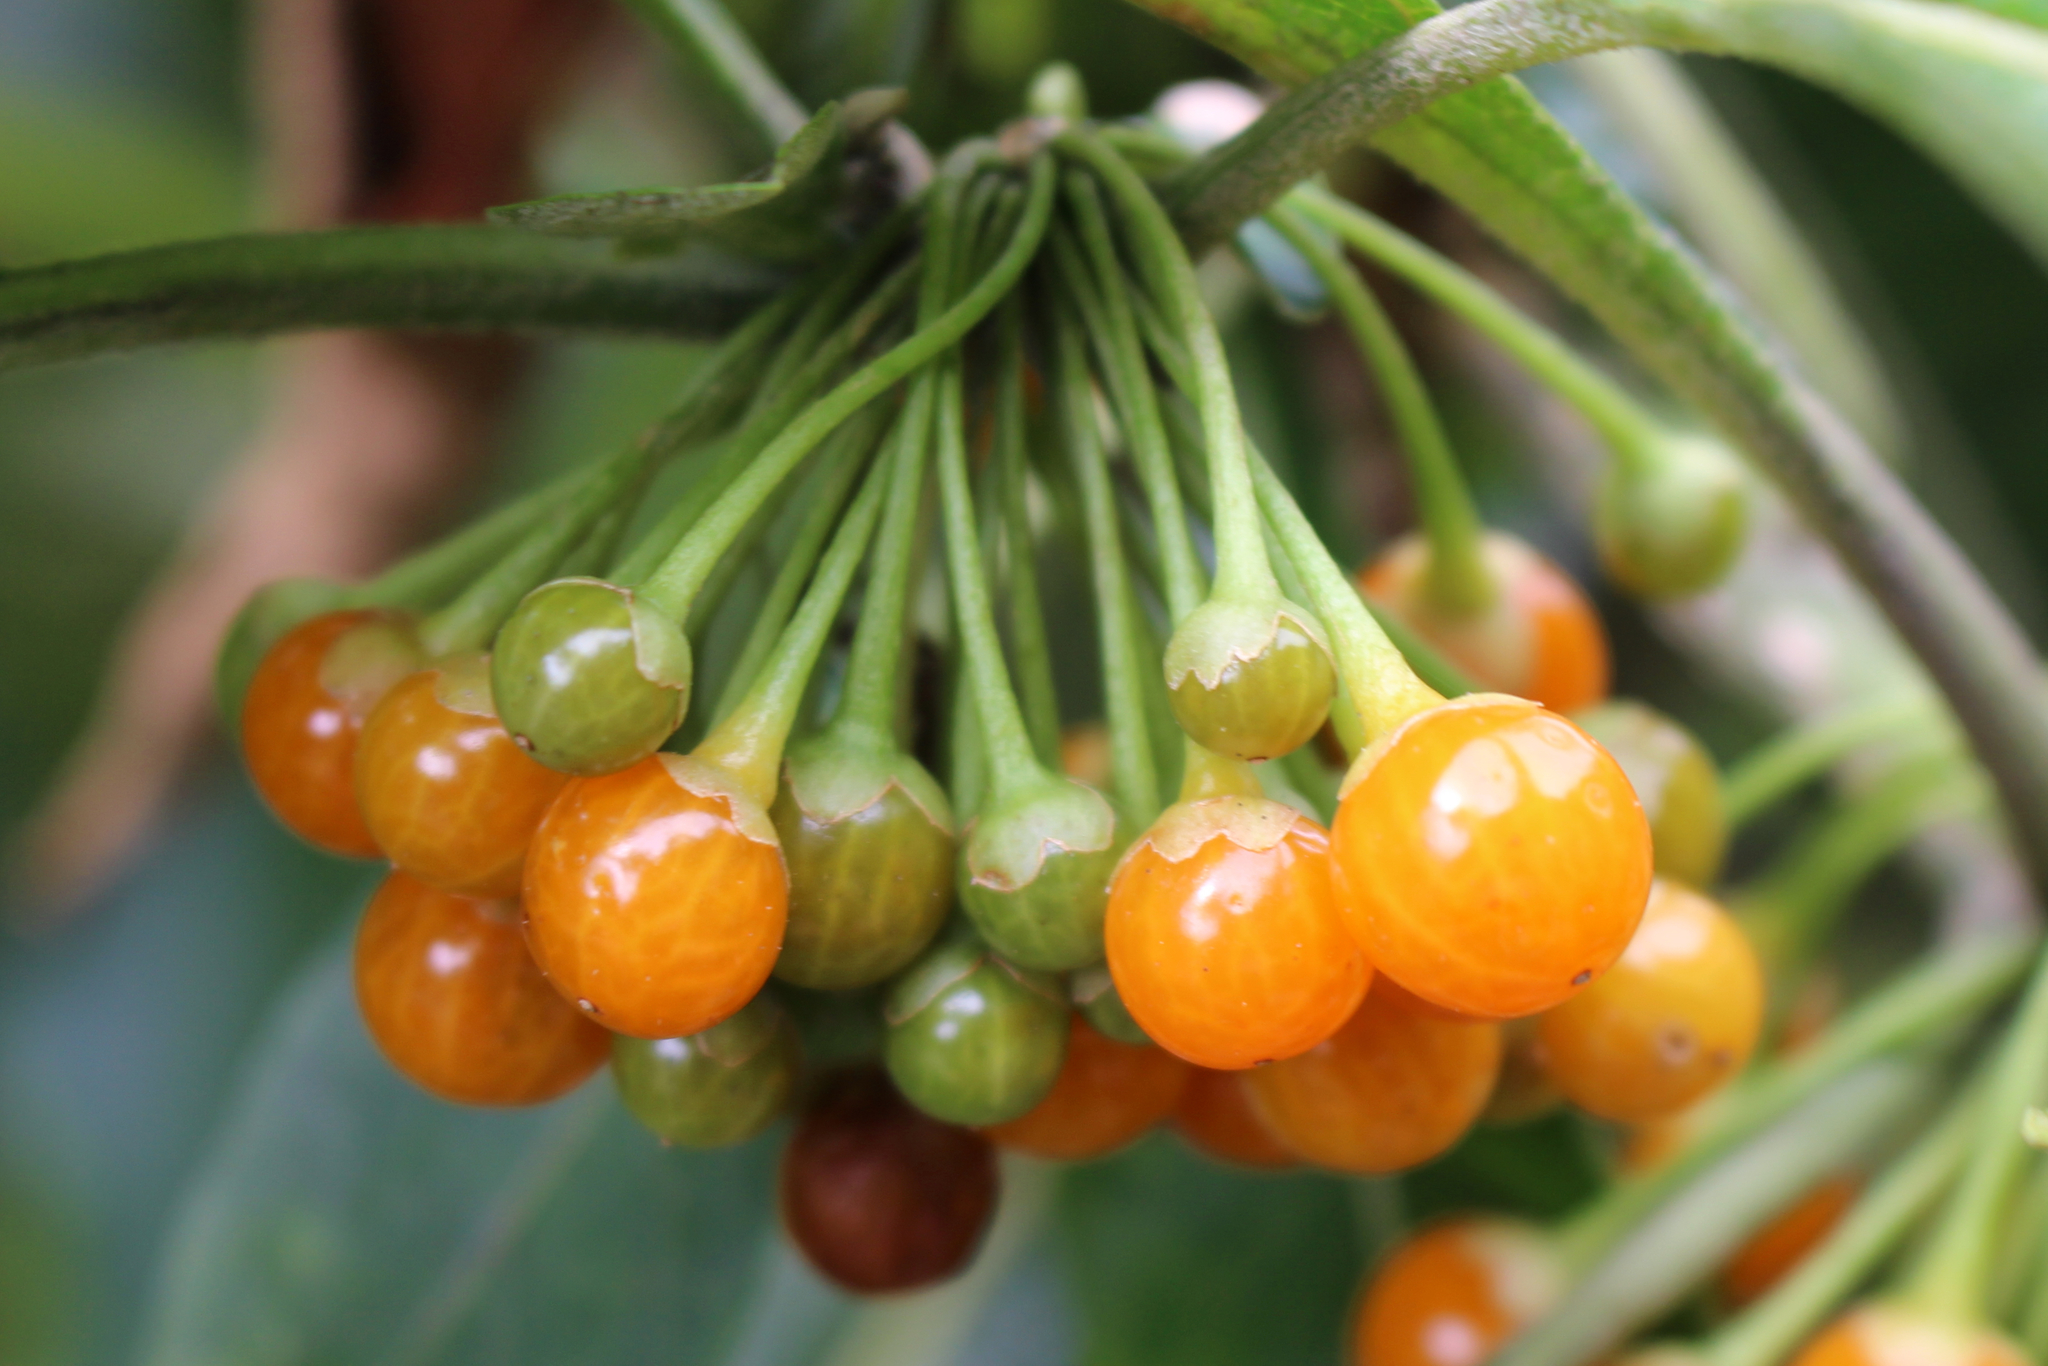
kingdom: Plantae
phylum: Tracheophyta
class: Magnoliopsida
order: Solanales
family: Solanaceae
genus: Iochroma
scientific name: Iochroma arborescens
